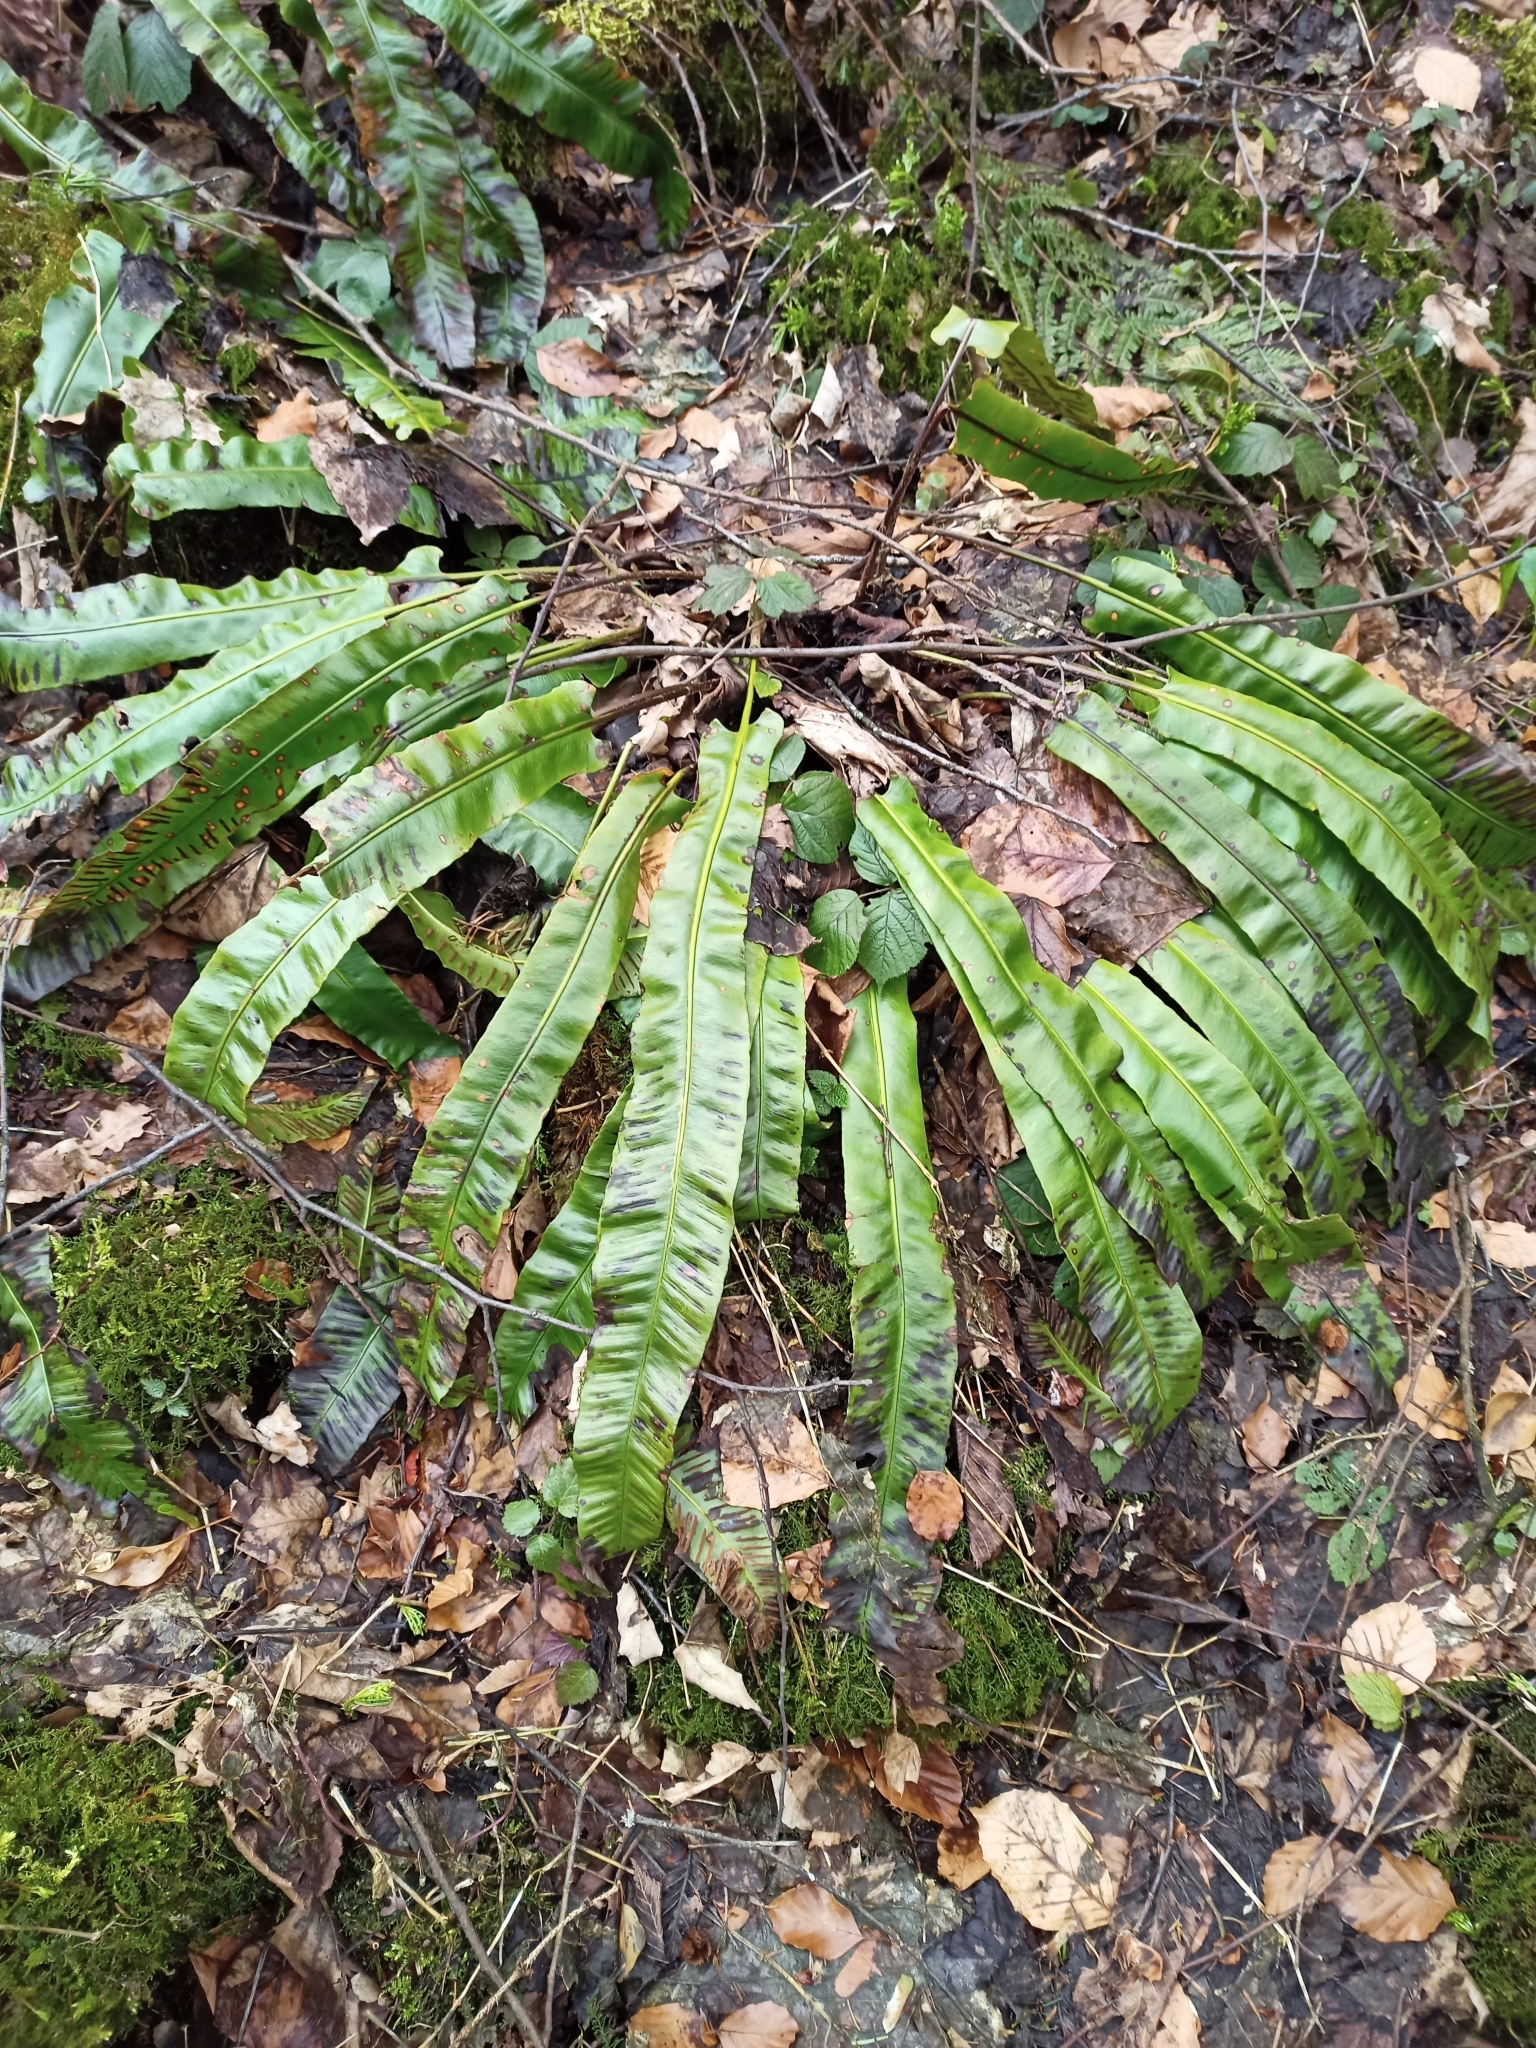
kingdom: Plantae
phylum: Tracheophyta
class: Polypodiopsida
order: Polypodiales
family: Aspleniaceae
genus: Asplenium
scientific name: Asplenium scolopendrium
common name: Hart's-tongue fern
